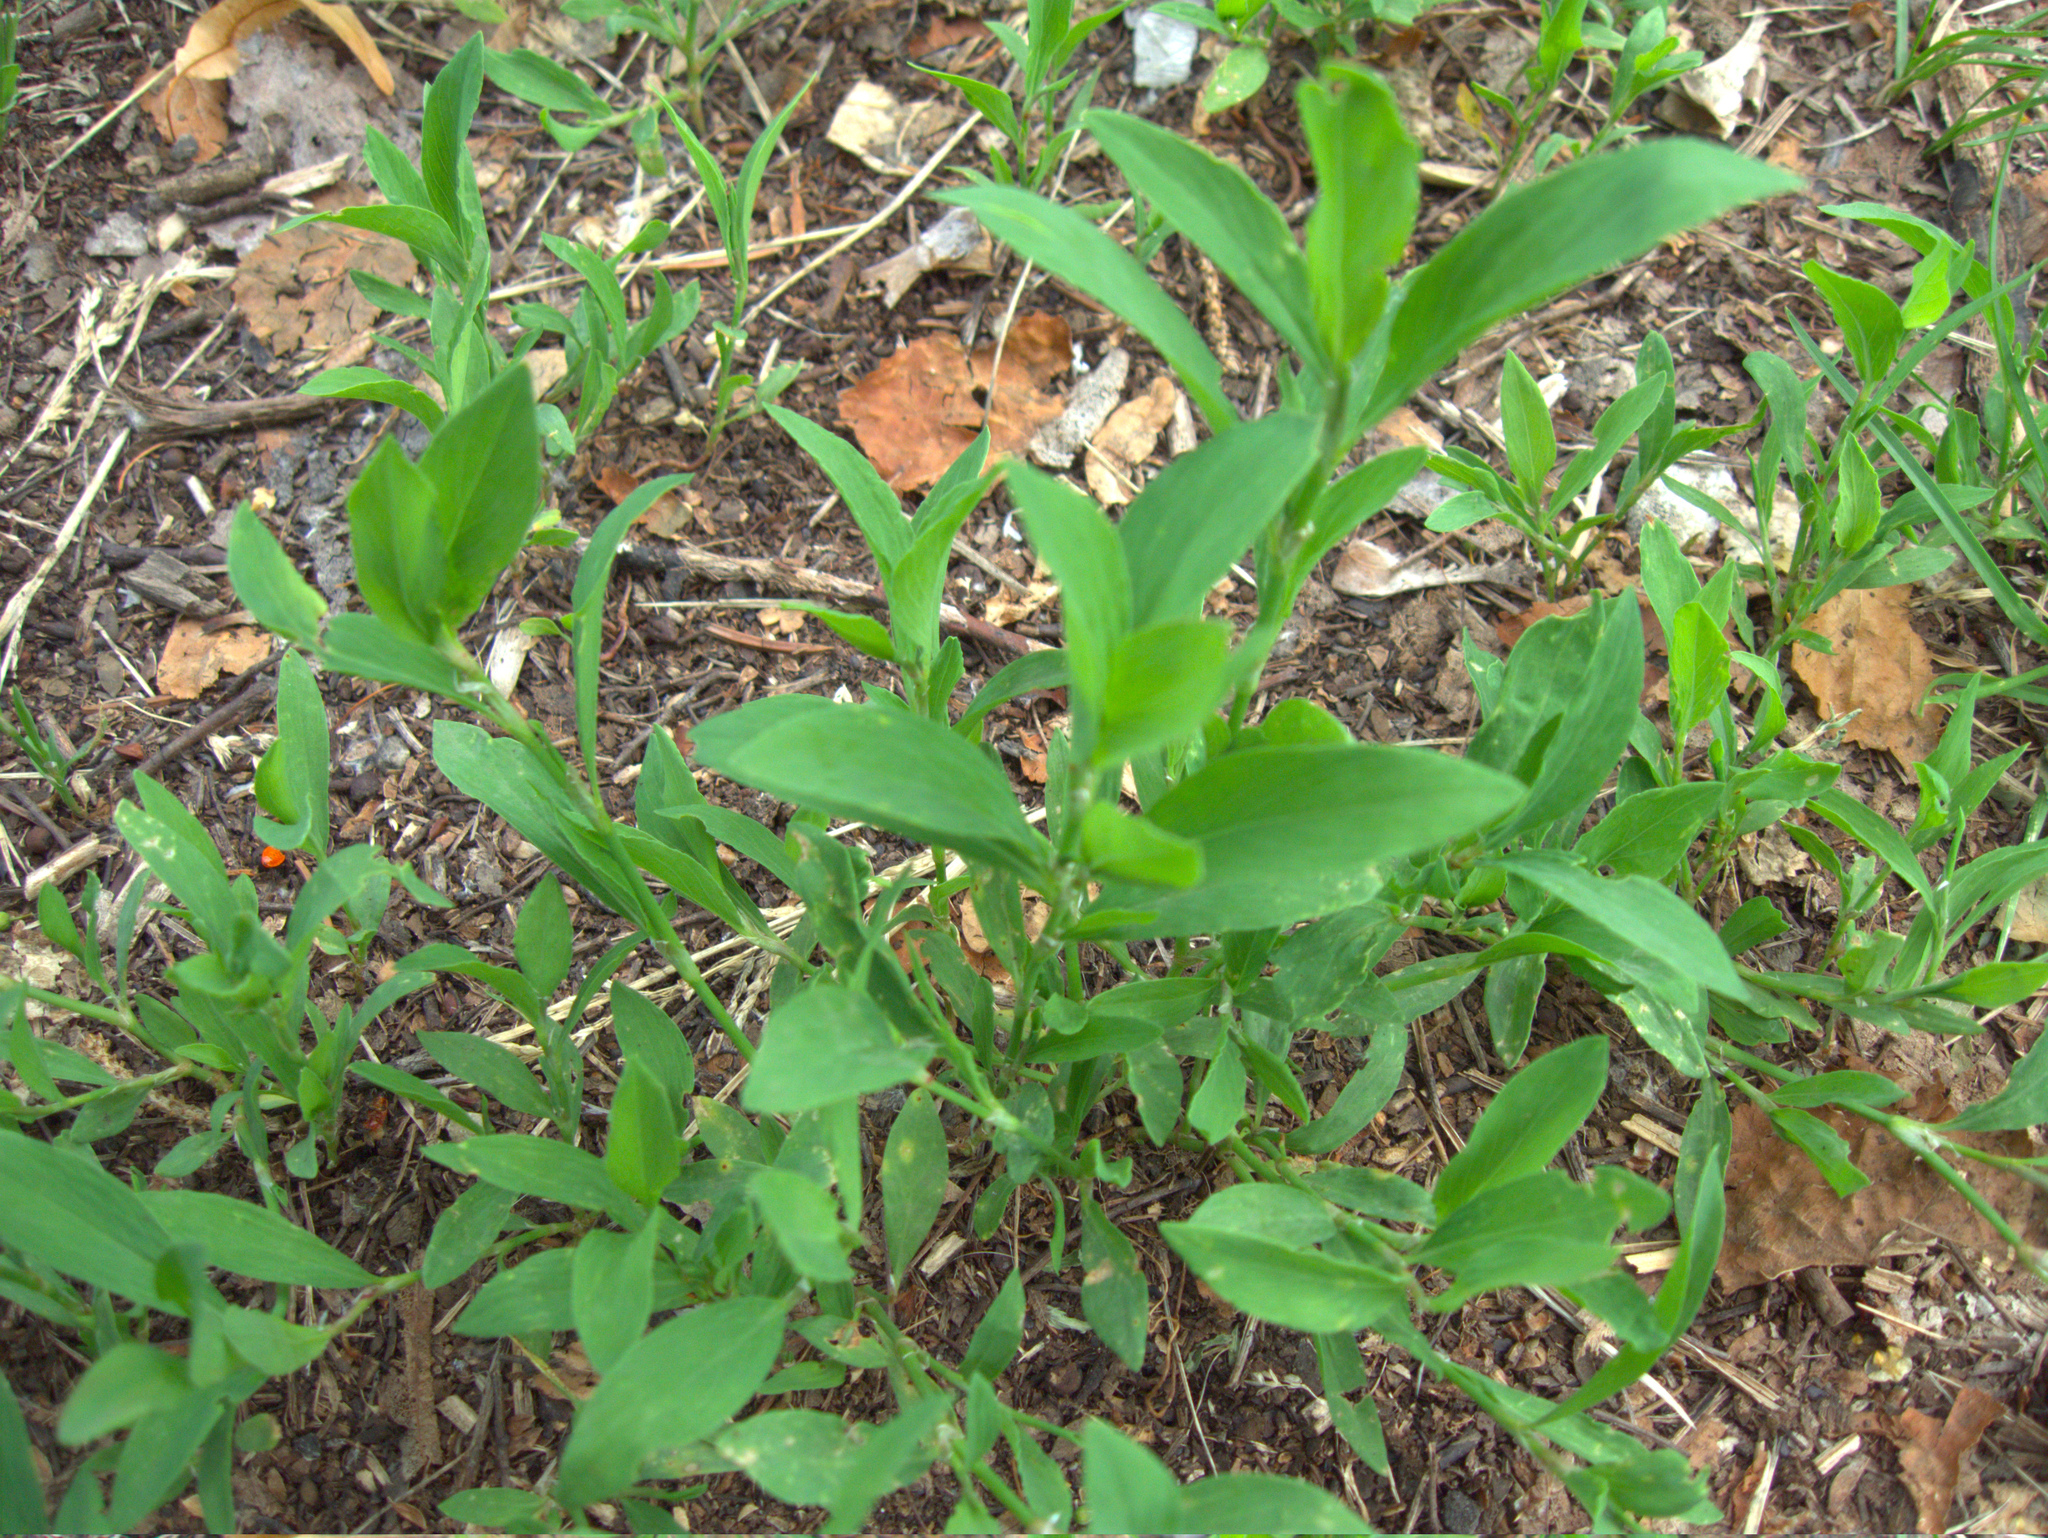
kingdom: Plantae
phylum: Tracheophyta
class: Magnoliopsida
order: Caryophyllales
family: Polygonaceae
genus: Polygonum
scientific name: Polygonum
